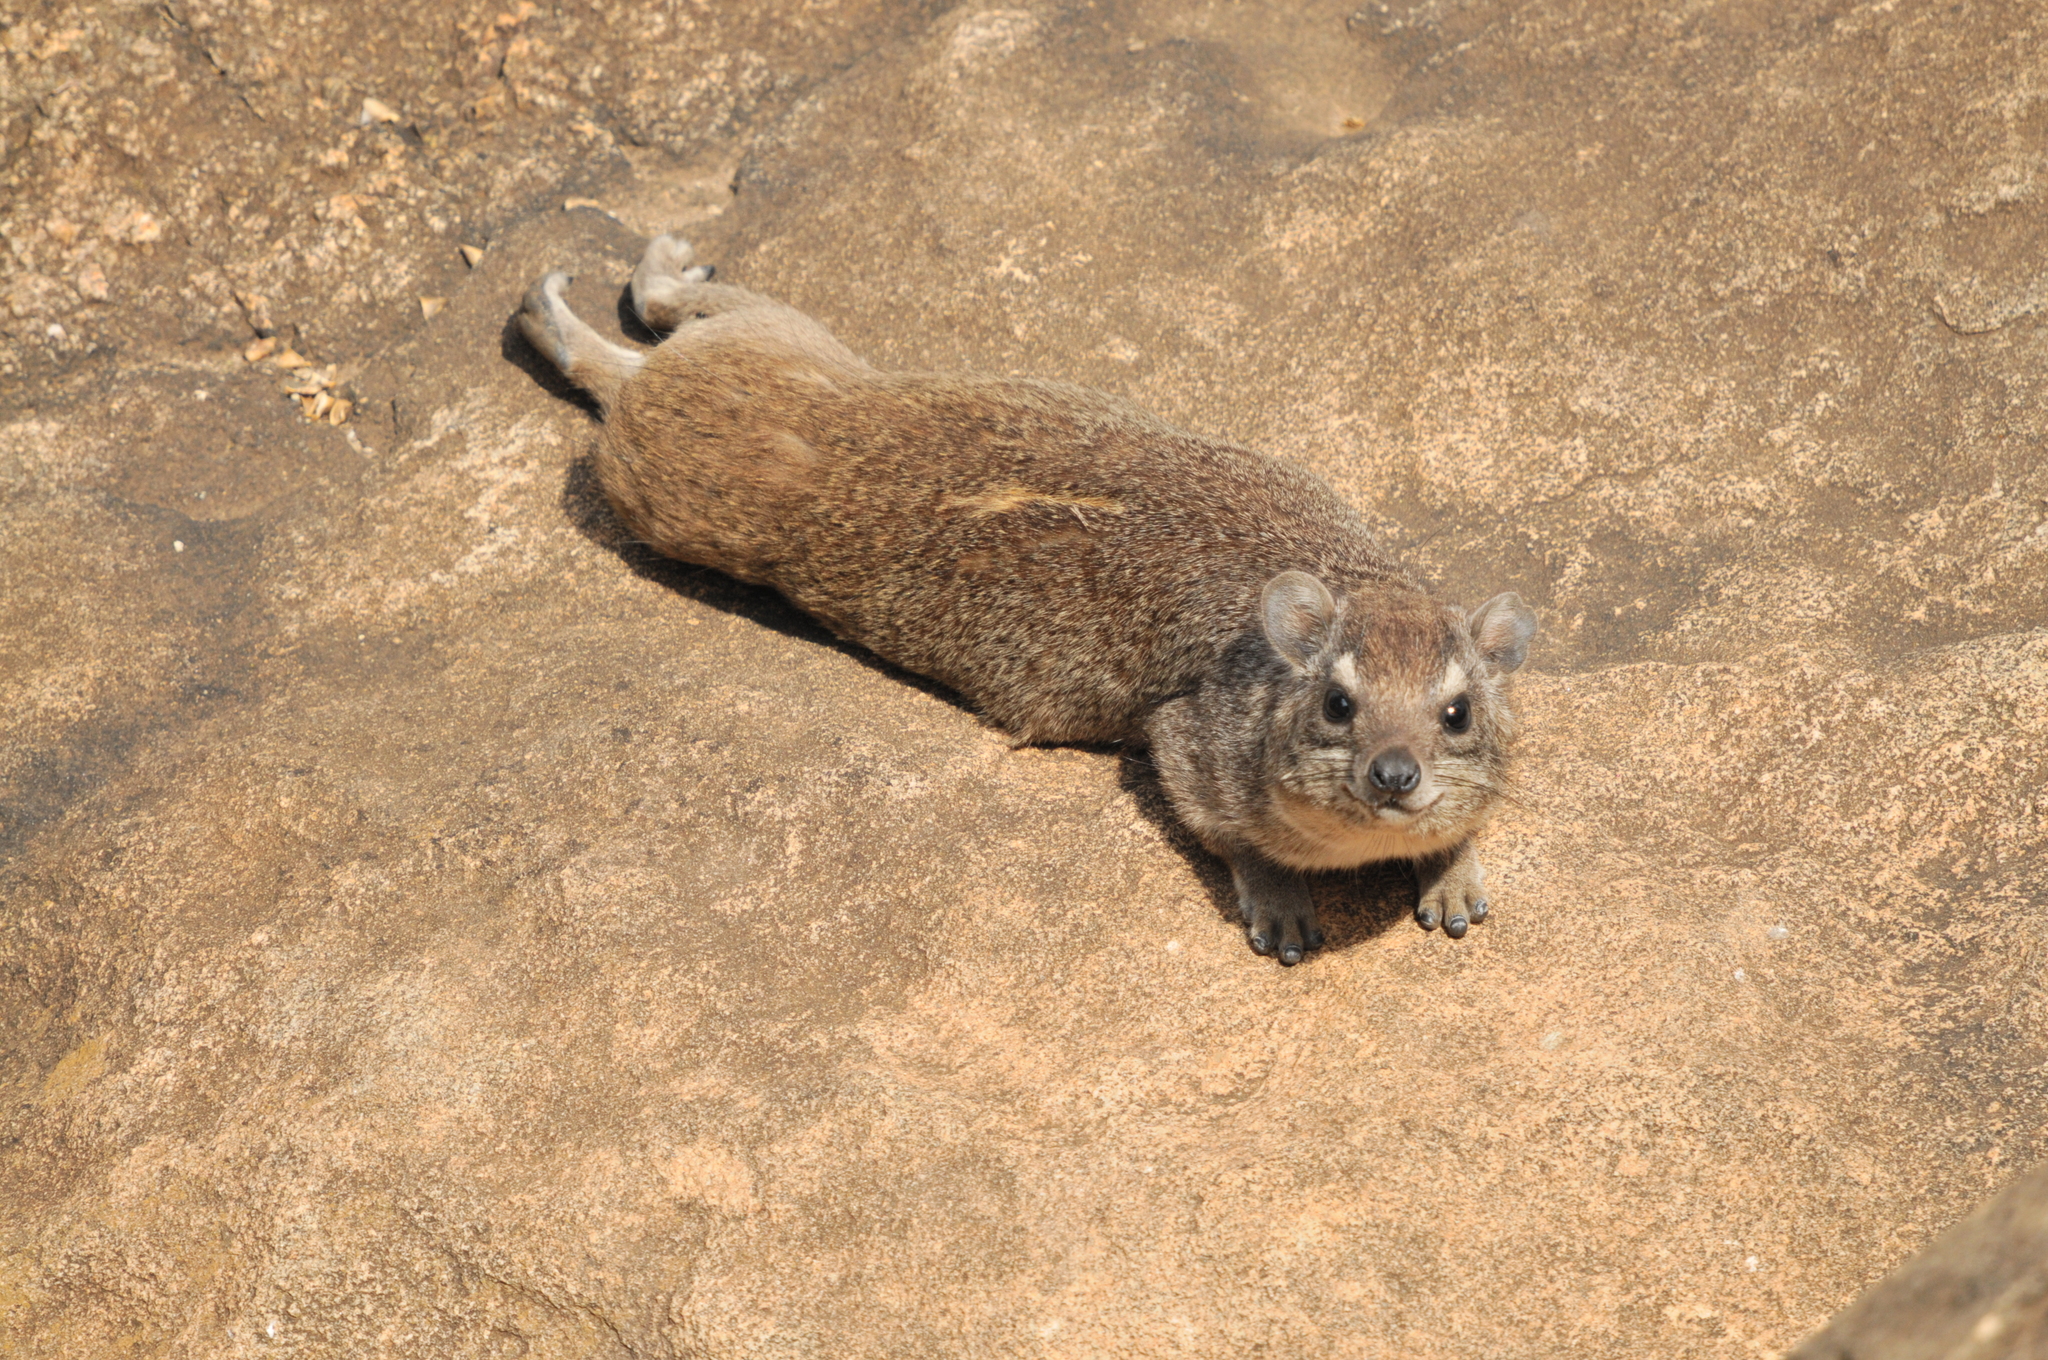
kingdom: Animalia
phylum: Chordata
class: Mammalia
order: Hyracoidea
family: Procaviidae
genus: Heterohyrax
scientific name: Heterohyrax brucei
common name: Bush hyrax
